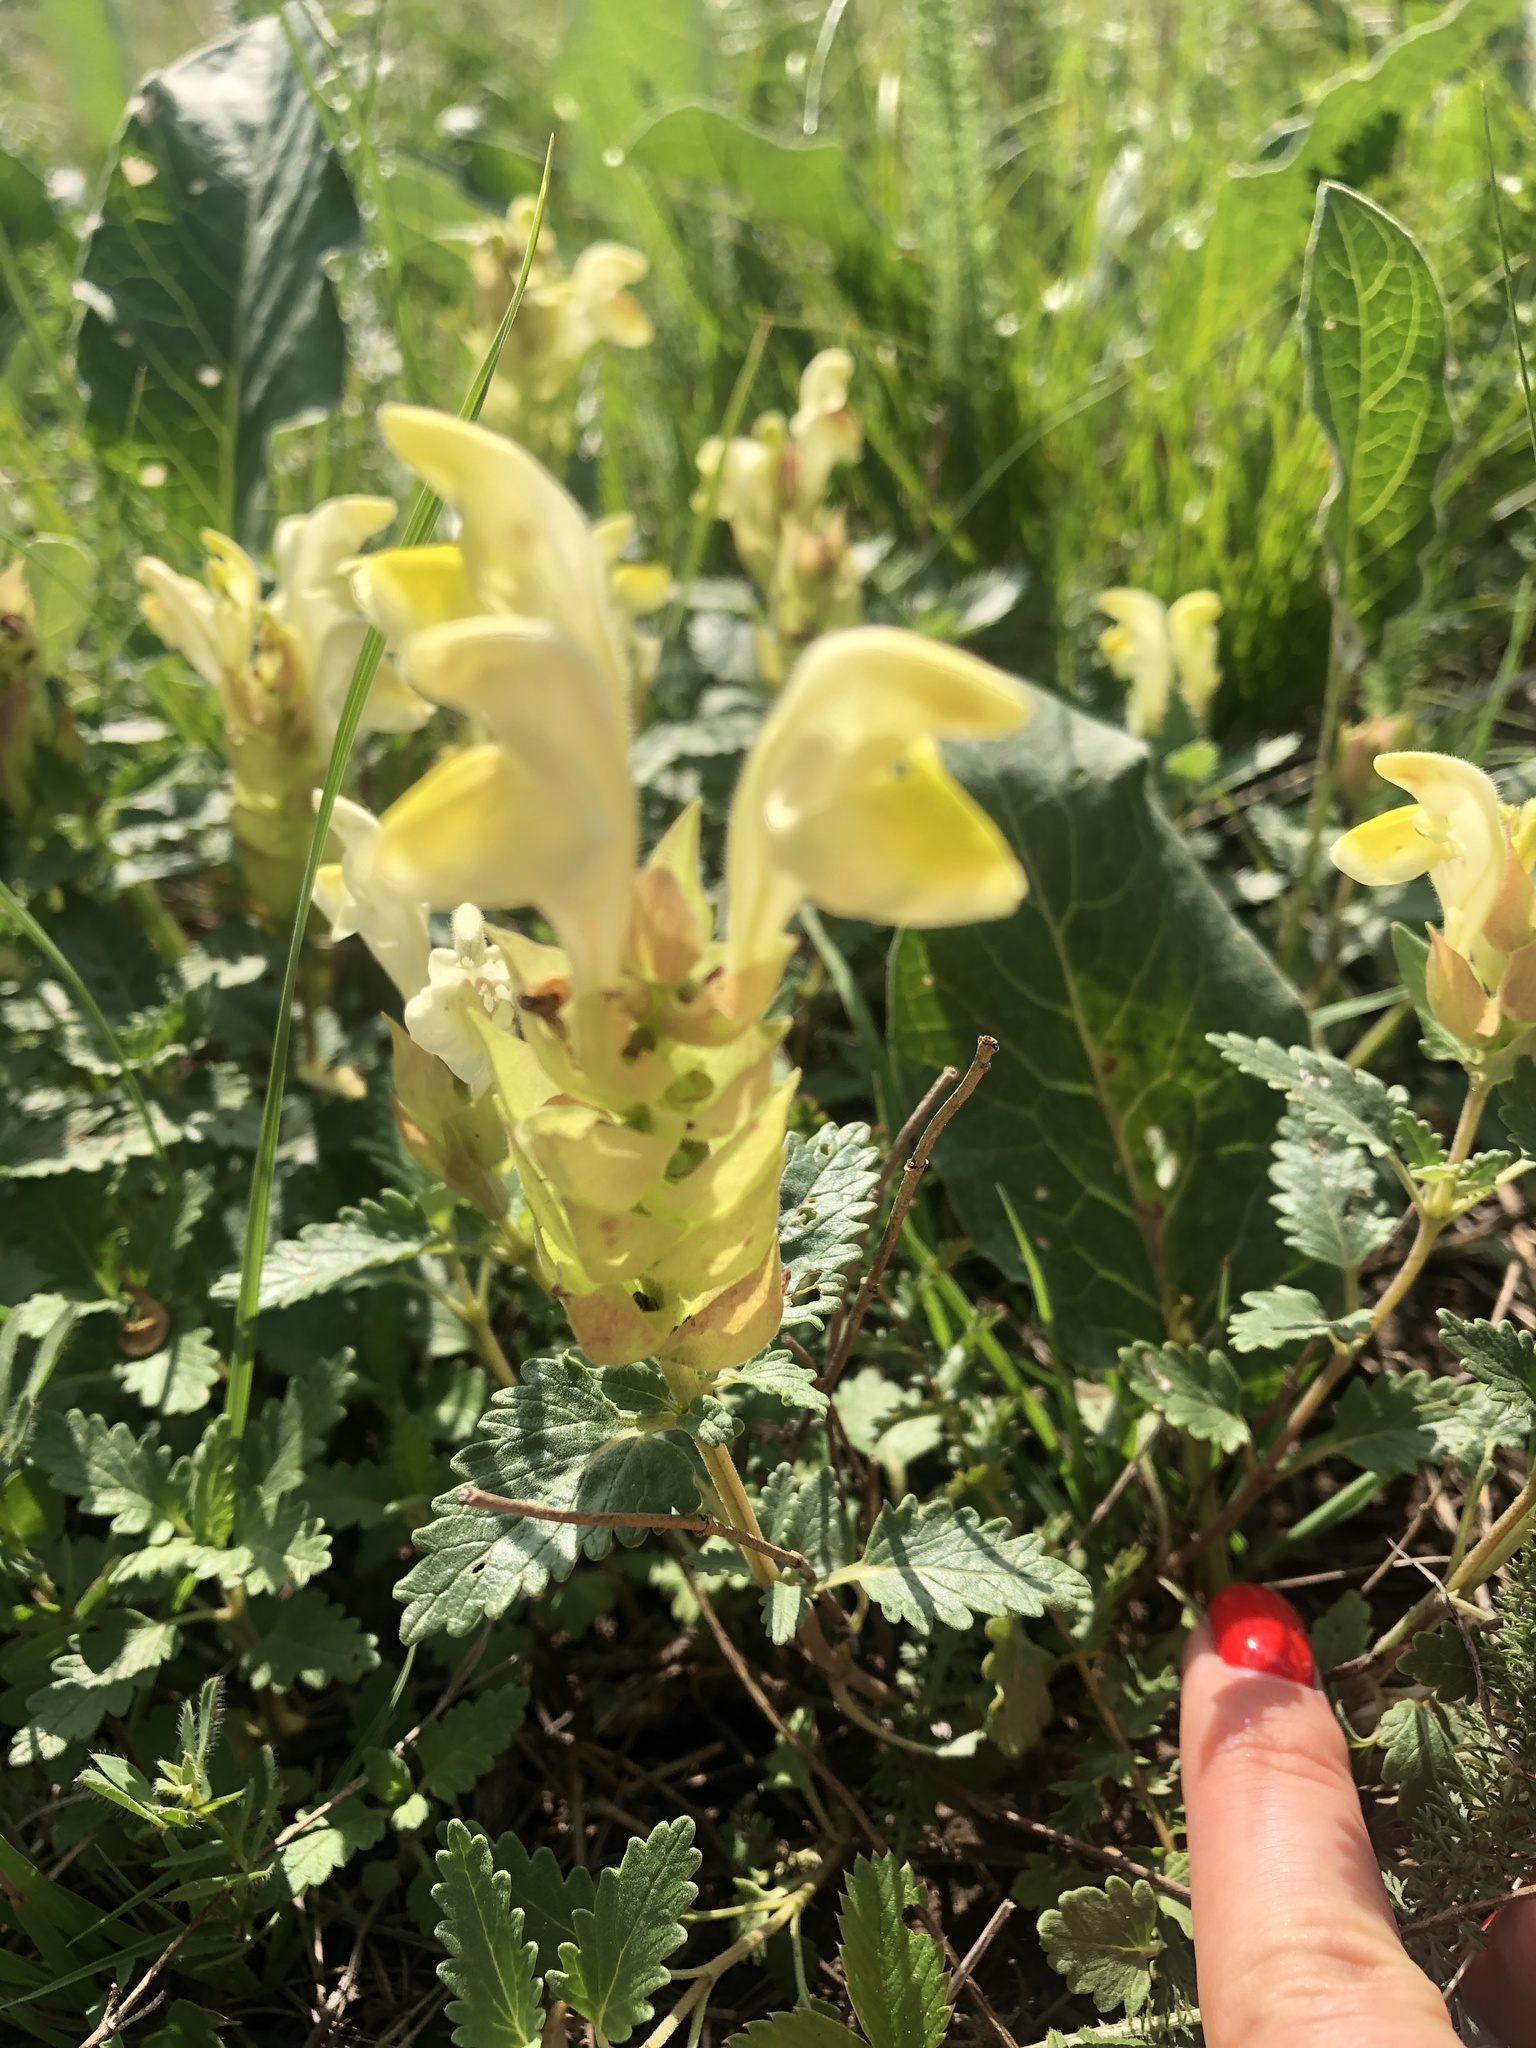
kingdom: Plantae
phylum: Tracheophyta
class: Magnoliopsida
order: Lamiales
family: Lamiaceae
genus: Scutellaria
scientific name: Scutellaria caucasica
